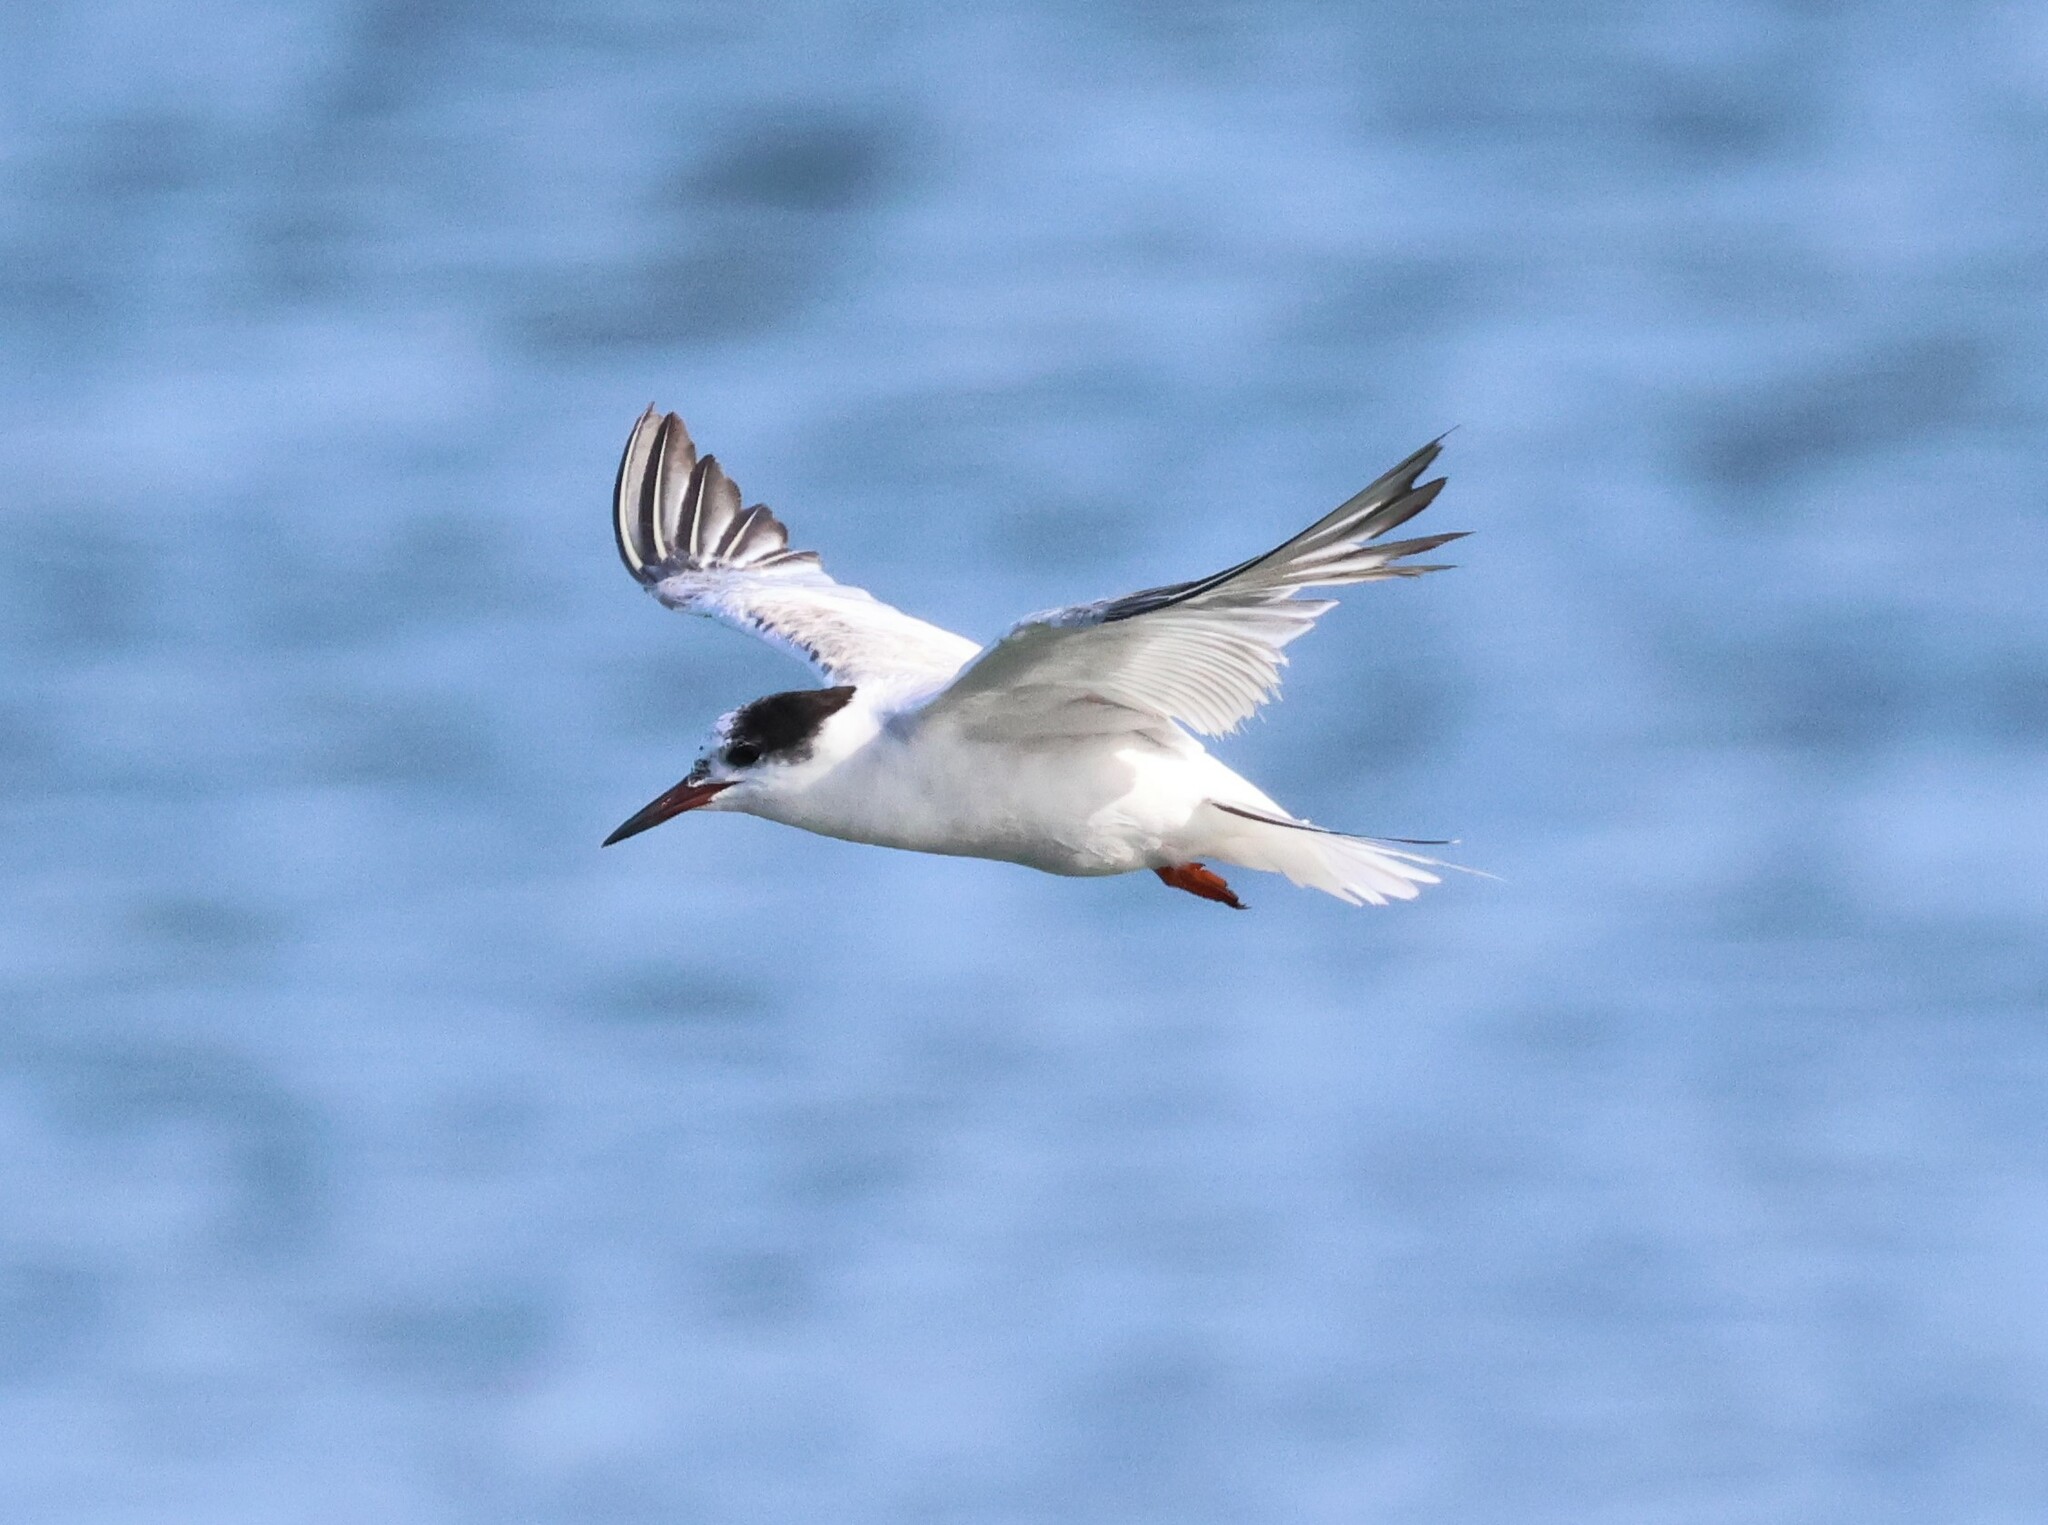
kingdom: Animalia
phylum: Chordata
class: Aves
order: Charadriiformes
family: Laridae
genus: Sterna
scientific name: Sterna hirundo
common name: Common tern
